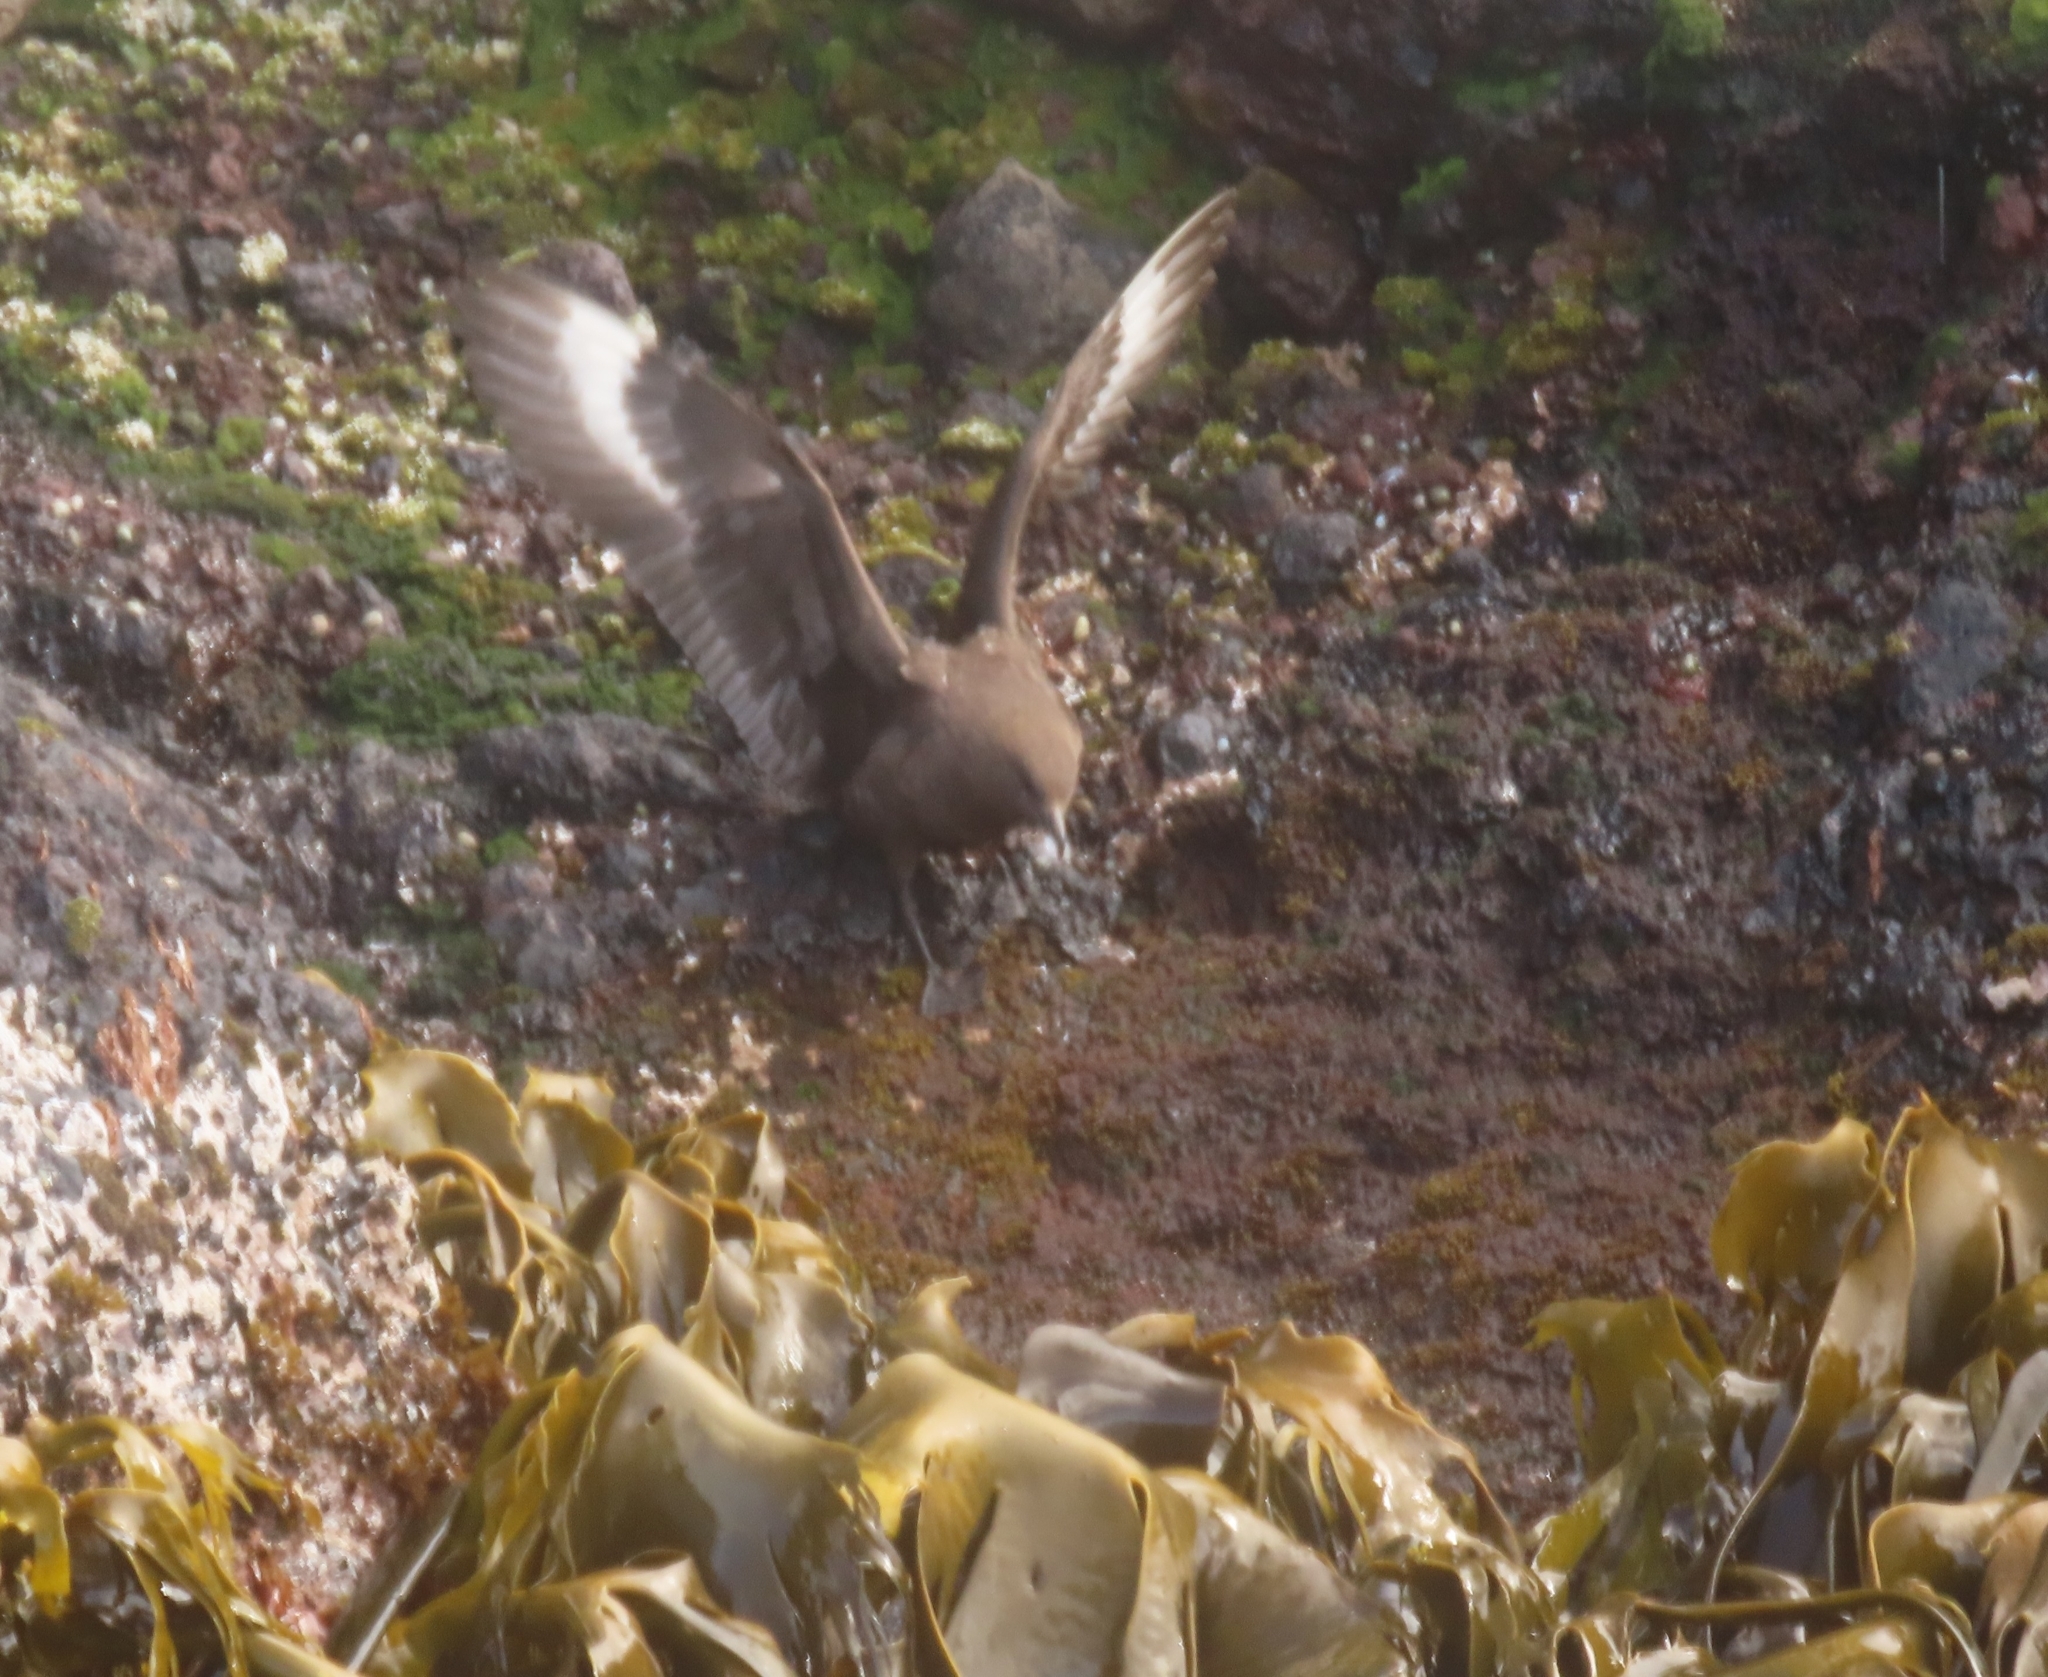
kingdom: Animalia
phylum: Chordata
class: Aves
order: Charadriiformes
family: Stercorariidae
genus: Stercorarius
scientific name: Stercorarius antarcticus
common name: Brown skua
